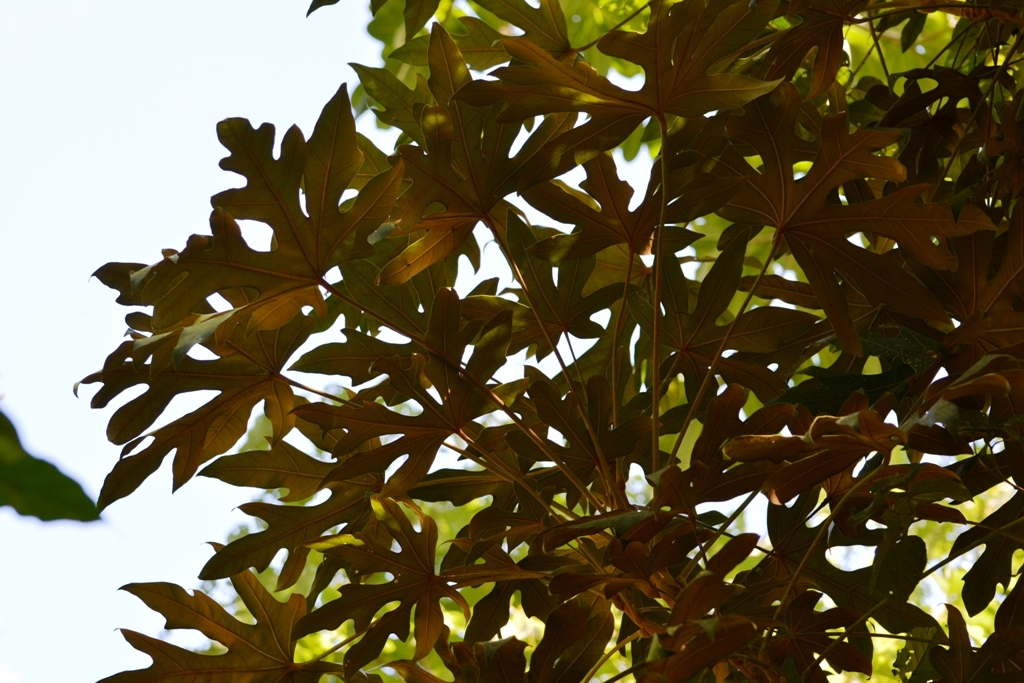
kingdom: Plantae
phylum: Tracheophyta
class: Magnoliopsida
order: Apiales
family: Araliaceae
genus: Oreopanax
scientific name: Oreopanax geminatus
